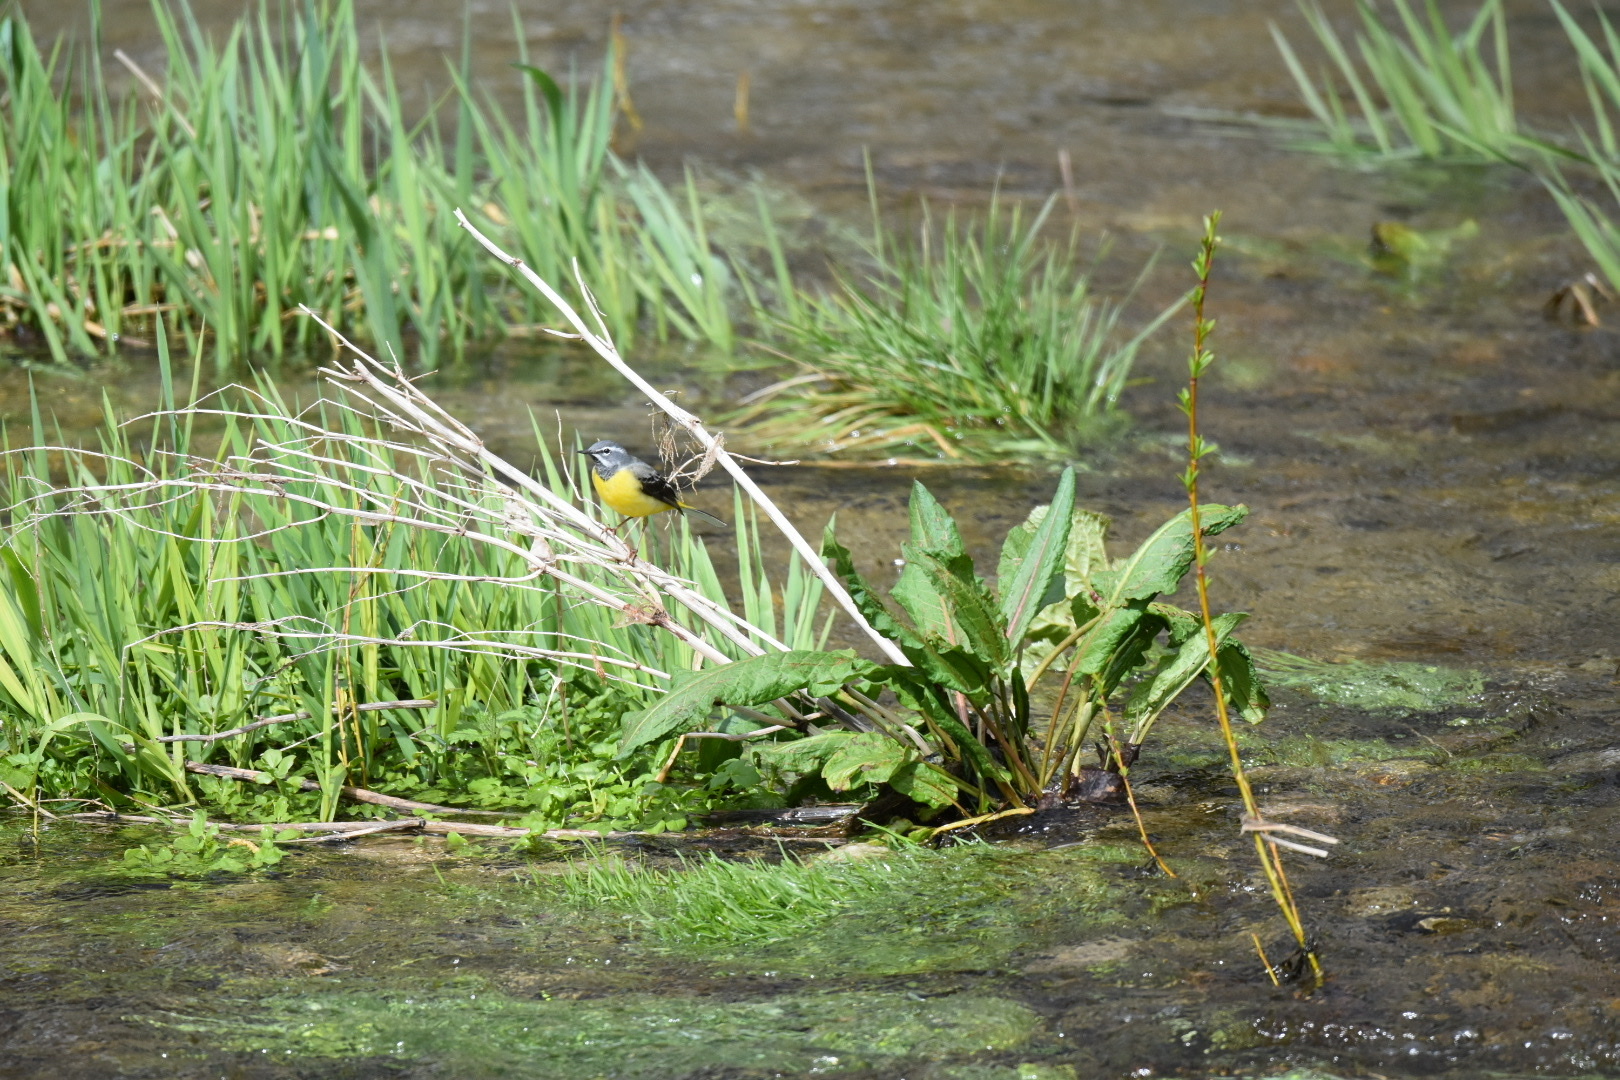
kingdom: Animalia
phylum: Chordata
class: Aves
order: Passeriformes
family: Motacillidae
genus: Motacilla
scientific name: Motacilla cinerea
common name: Grey wagtail
